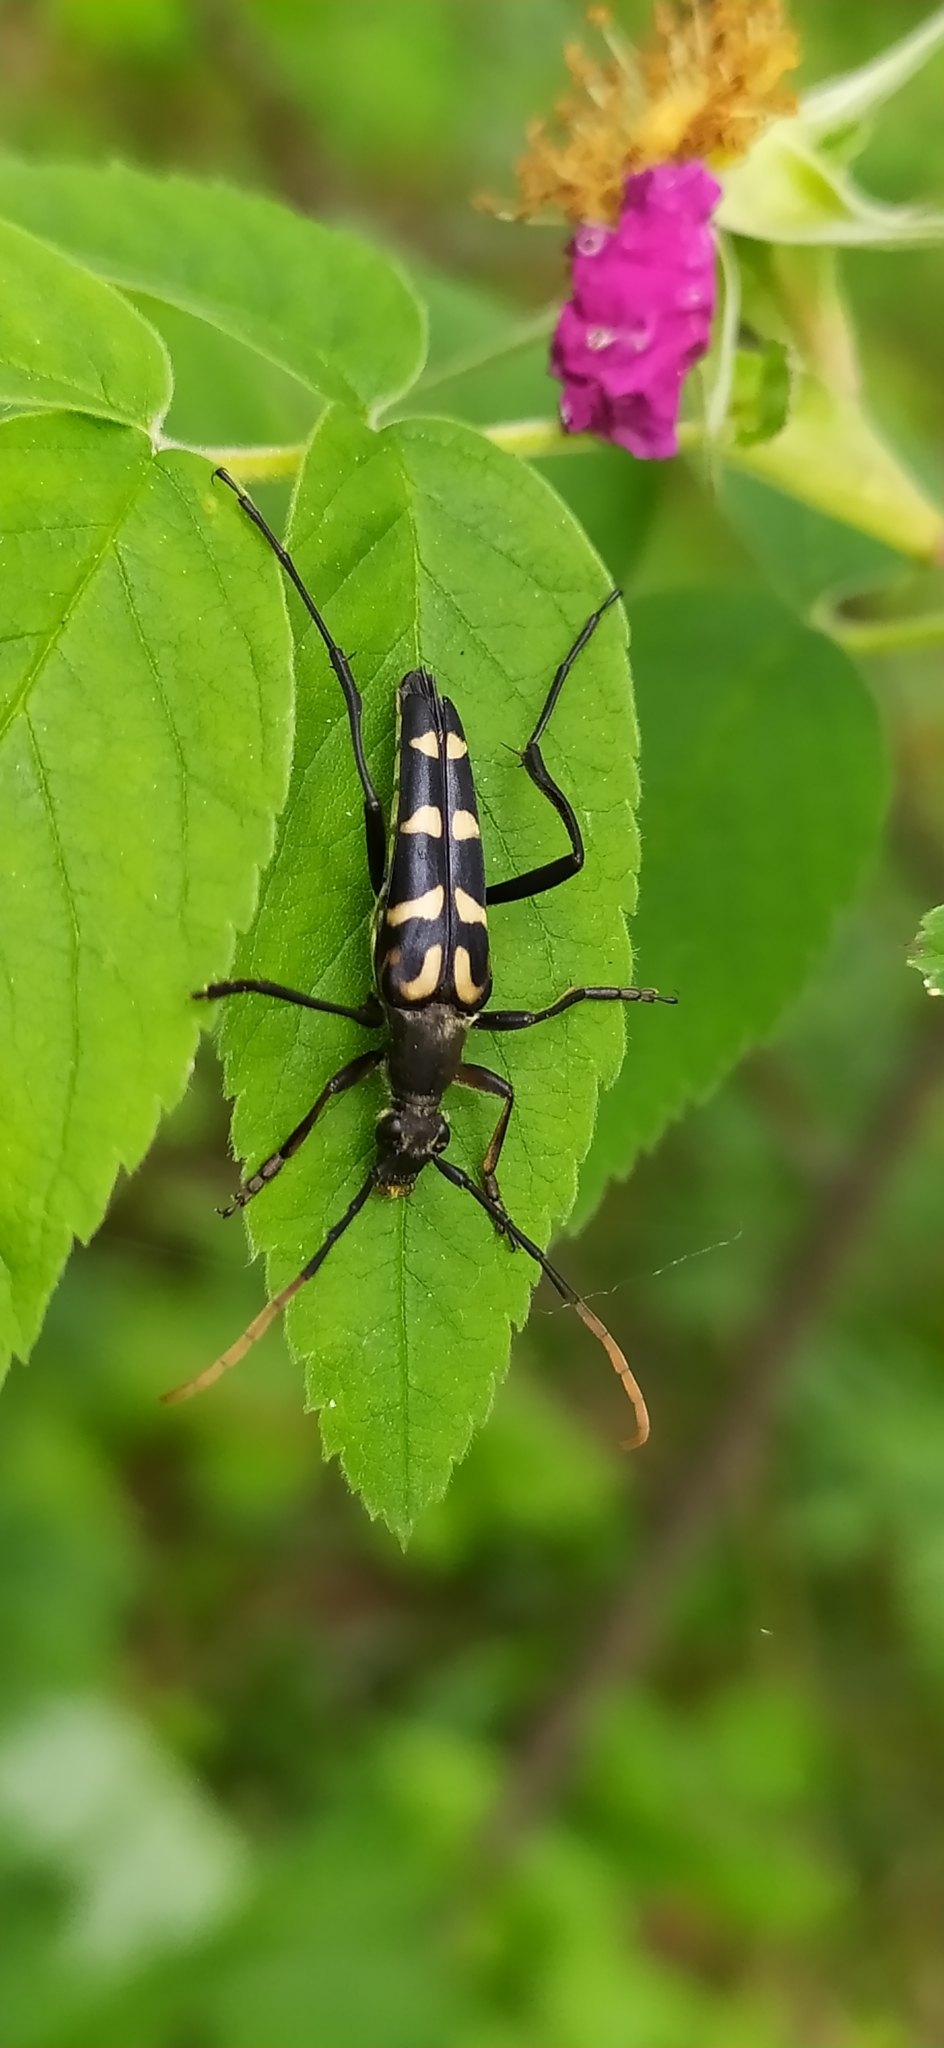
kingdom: Animalia
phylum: Arthropoda
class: Insecta
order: Coleoptera
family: Cerambycidae
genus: Leptura
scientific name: Leptura annularis
